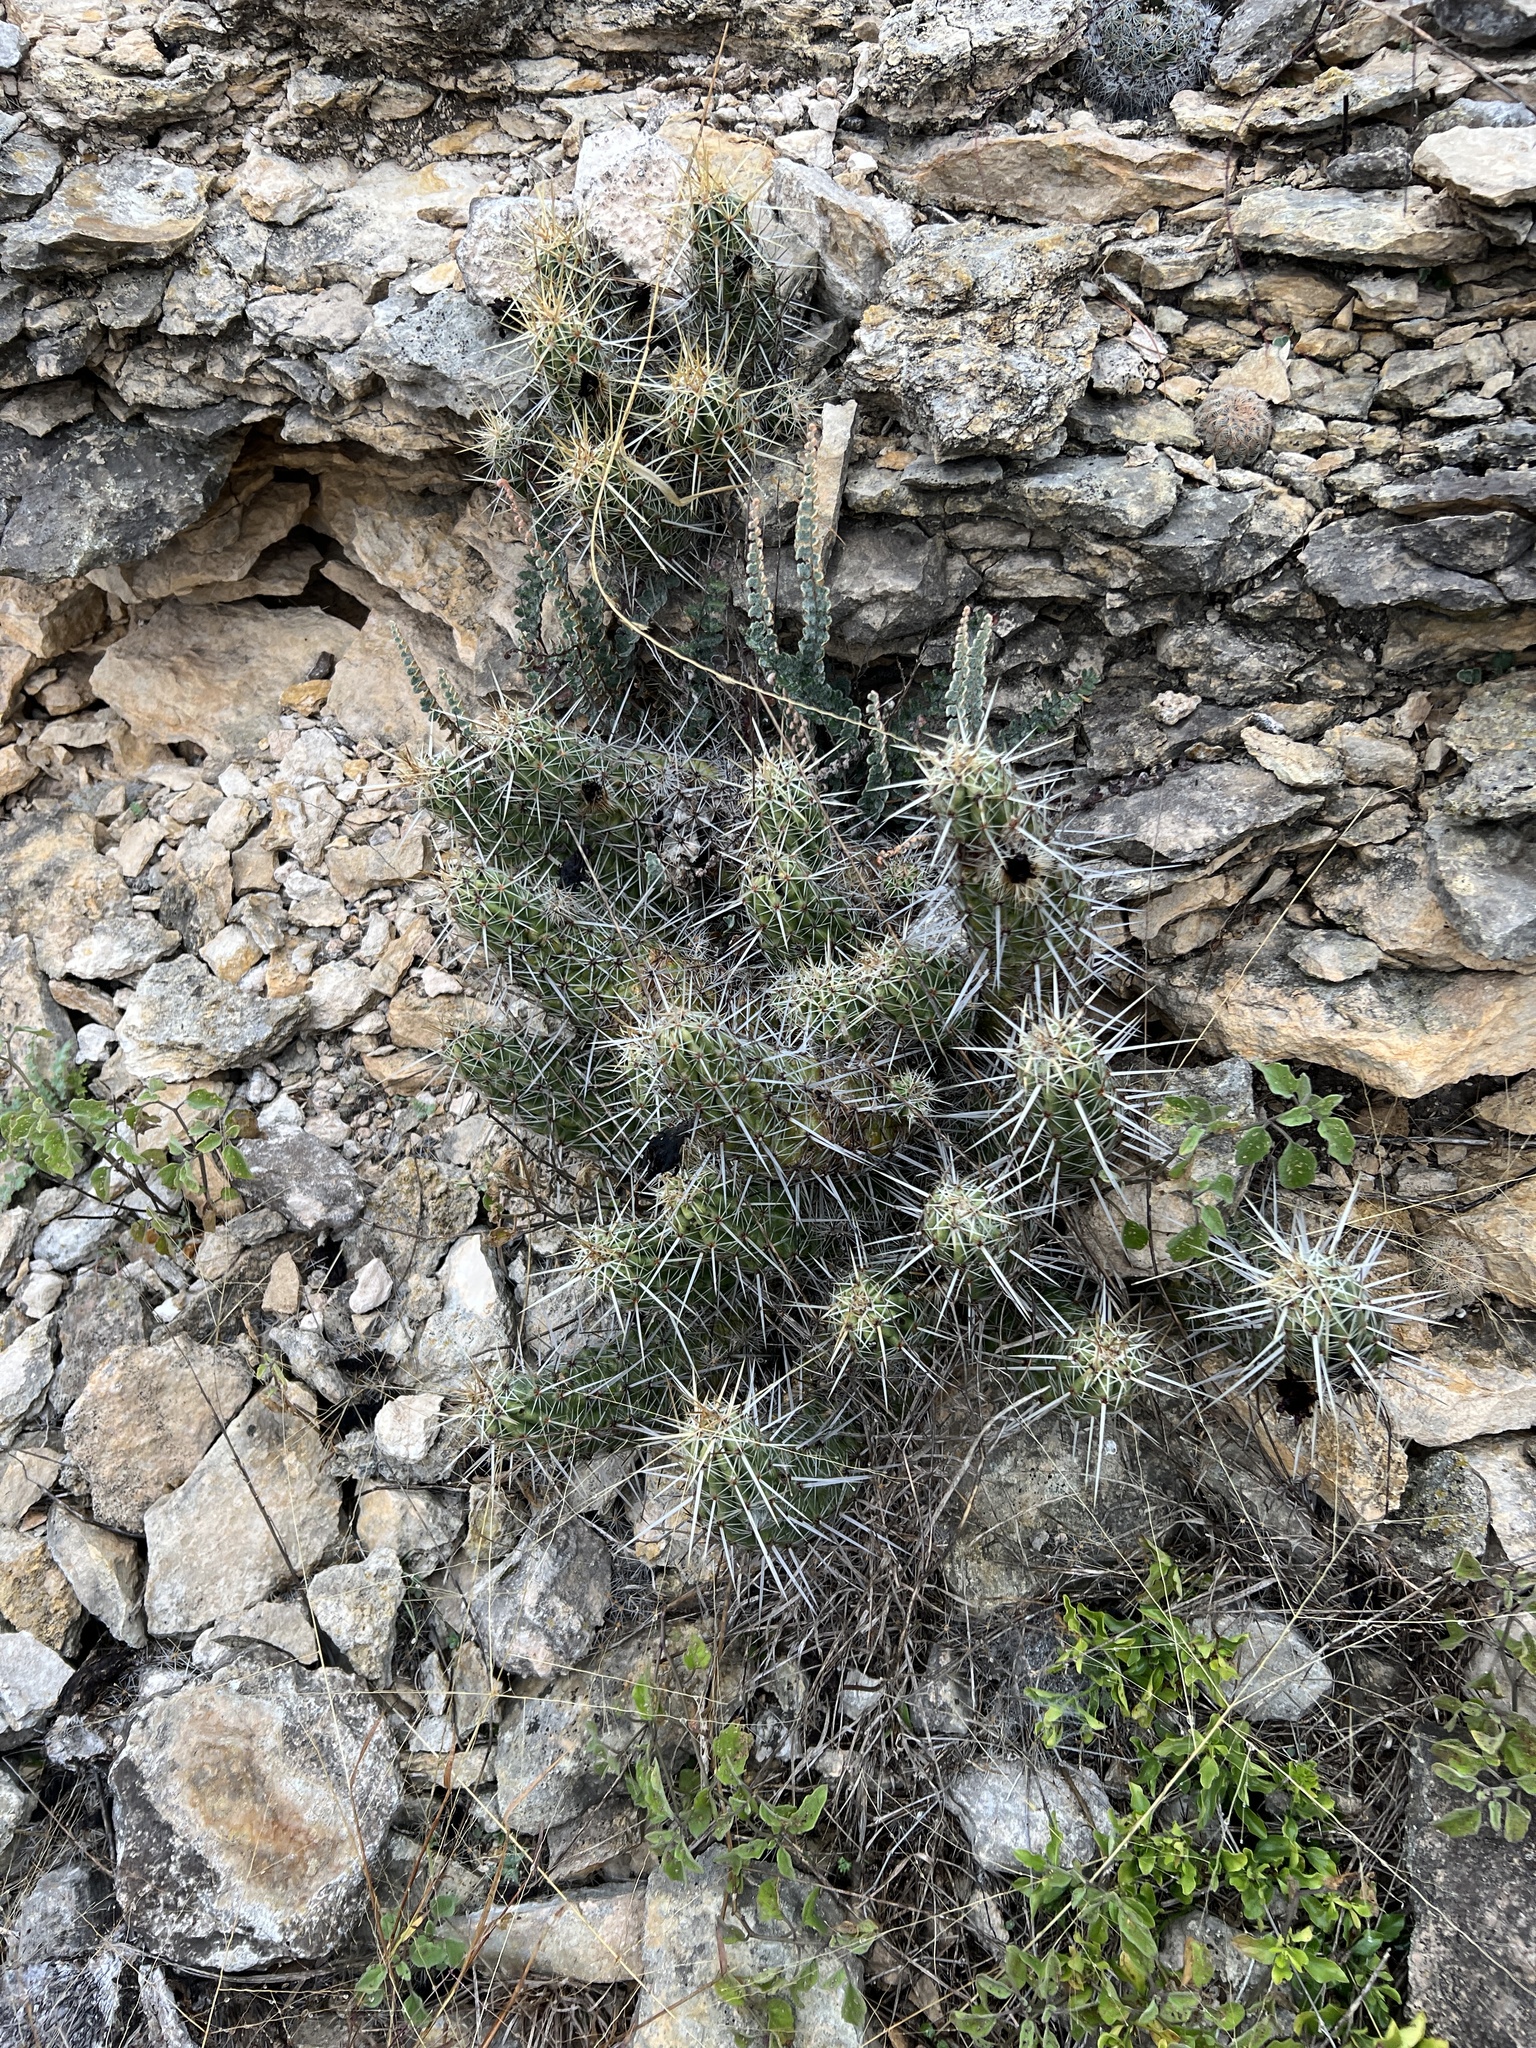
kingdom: Plantae
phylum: Tracheophyta
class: Magnoliopsida
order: Caryophyllales
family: Cactaceae
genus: Echinocereus
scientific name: Echinocereus enneacanthus
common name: Pitaya
